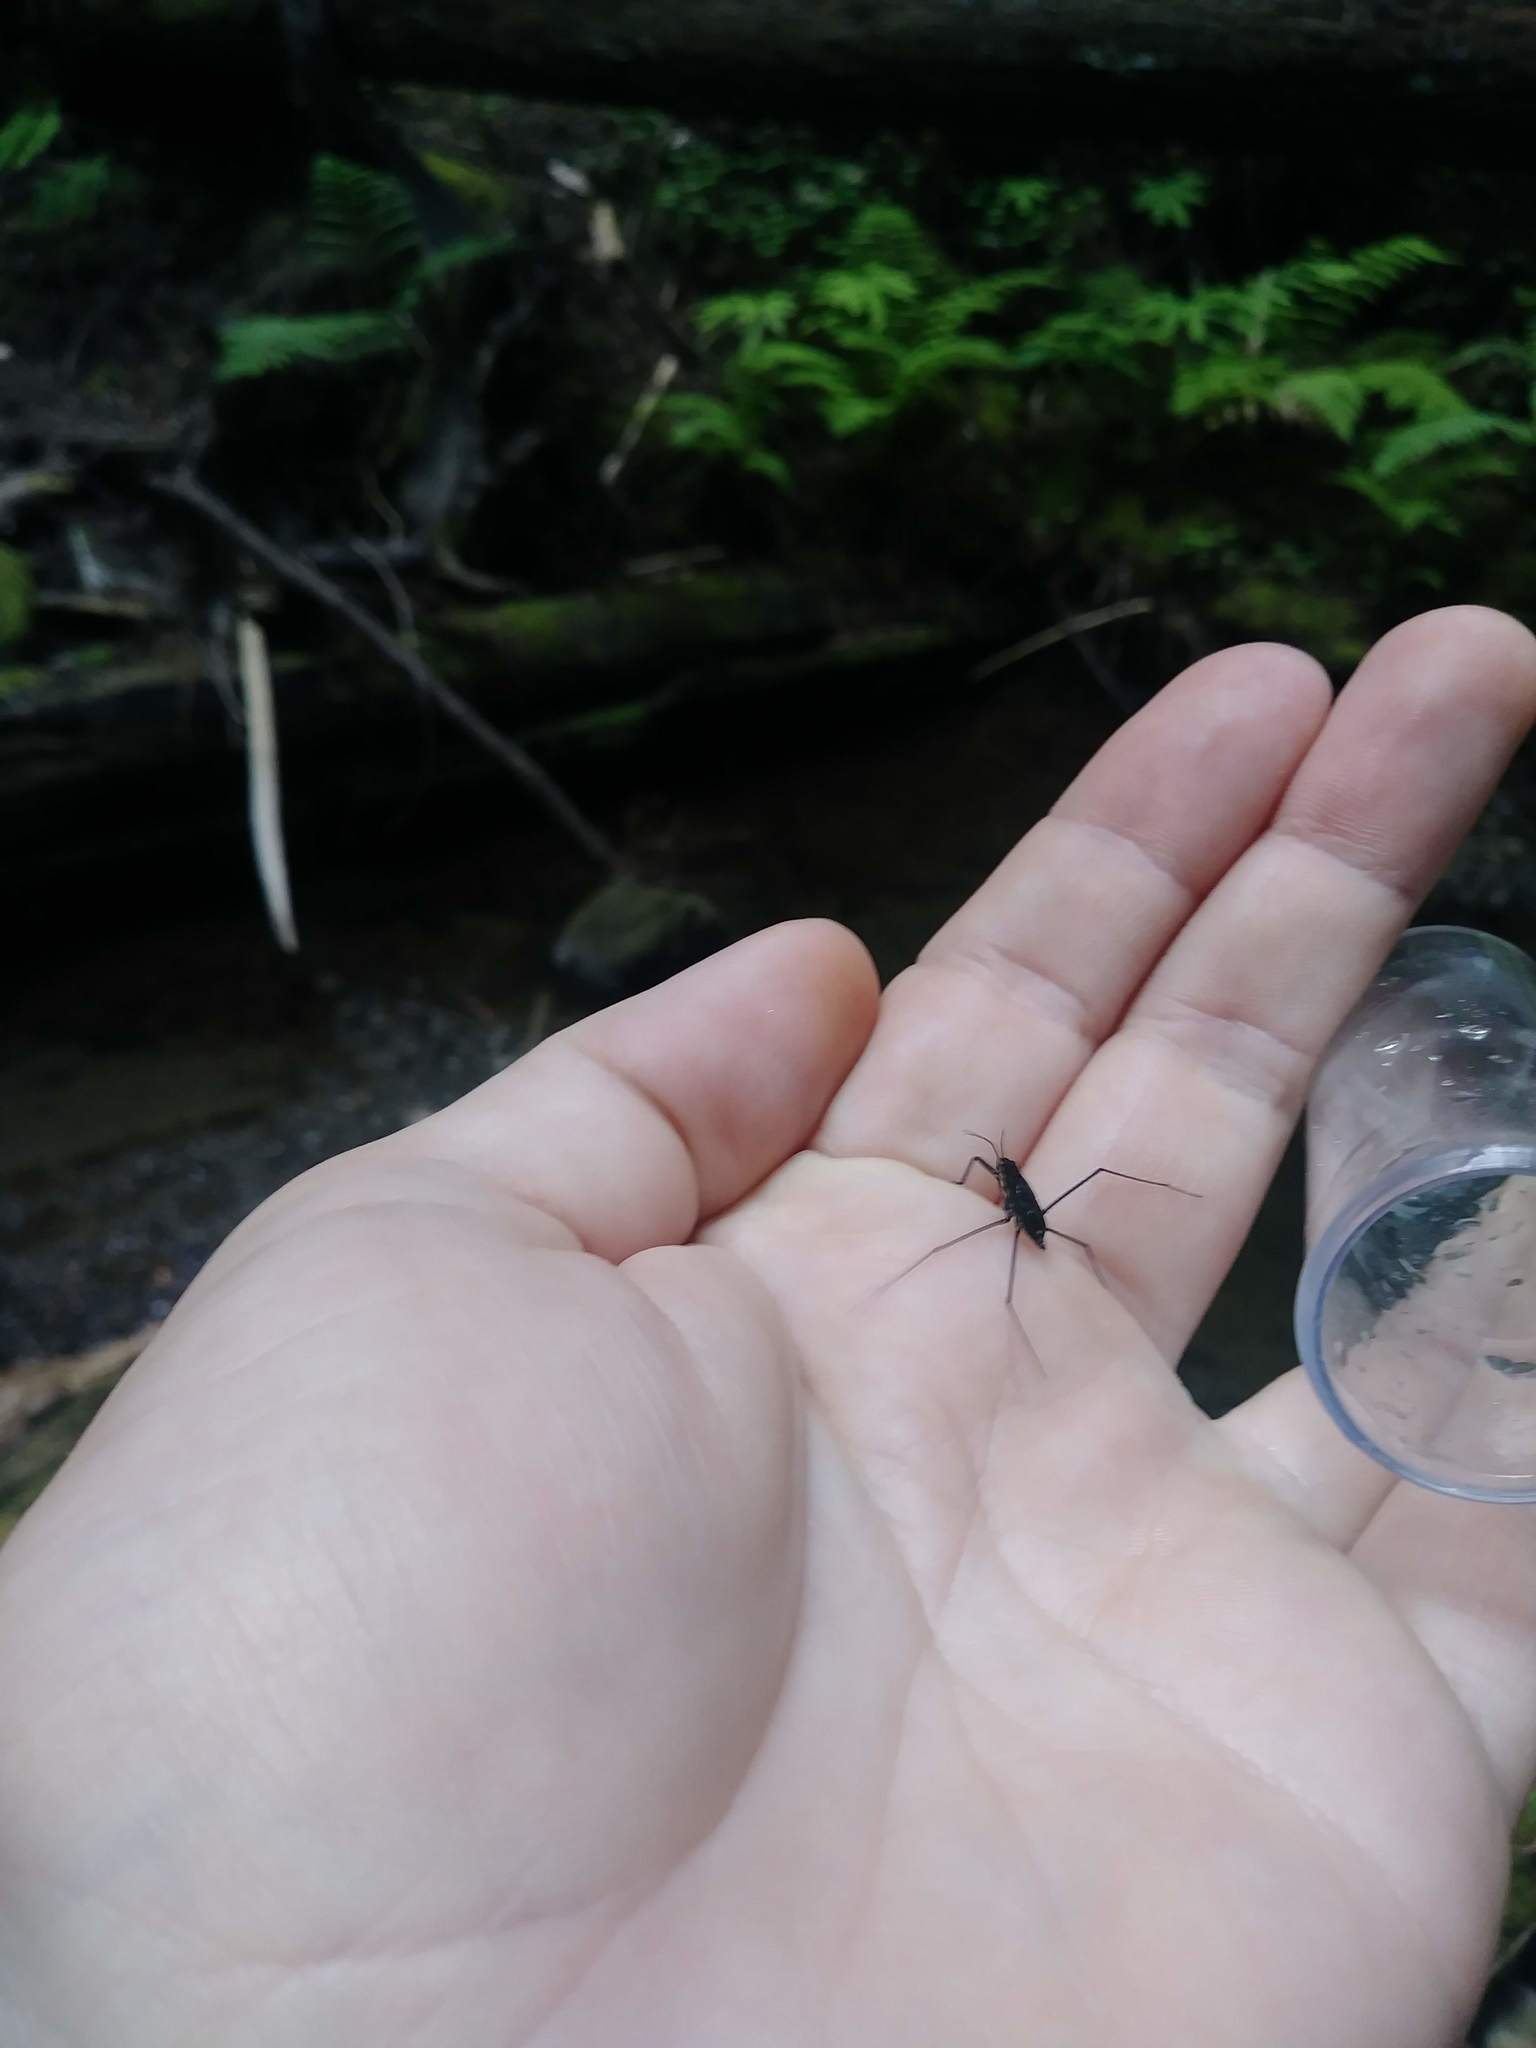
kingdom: Animalia
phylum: Arthropoda
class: Insecta
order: Hemiptera
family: Gerridae
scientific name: Gerridae
